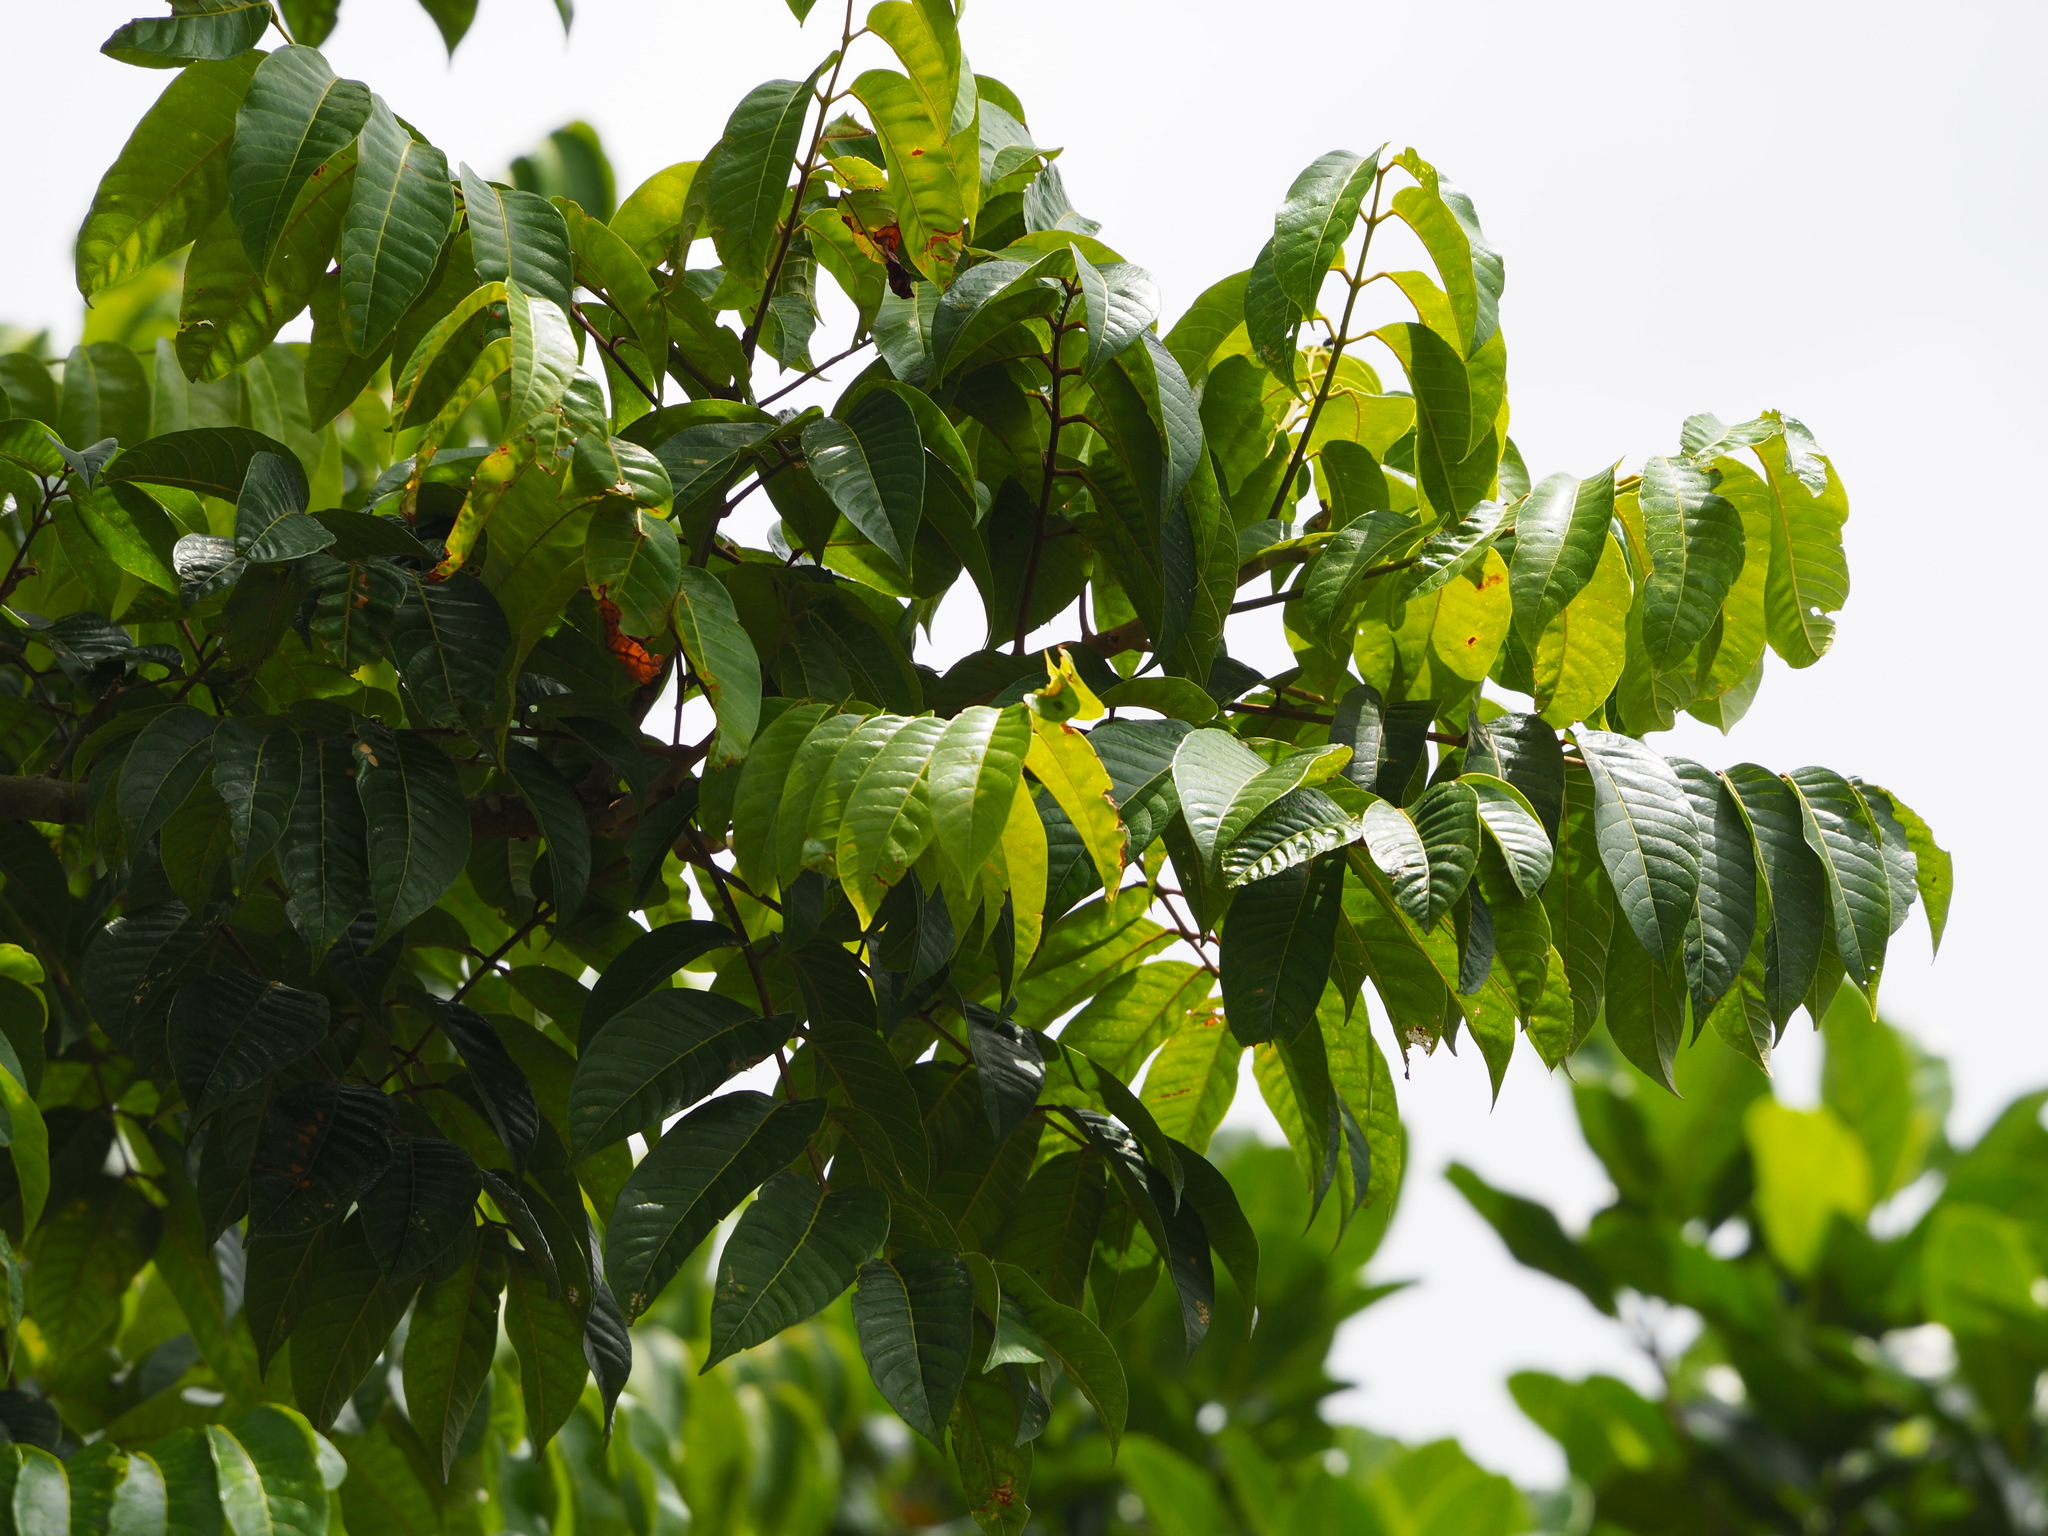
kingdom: Plantae
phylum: Tracheophyta
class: Magnoliopsida
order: Sapindales
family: Burseraceae
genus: Canarium
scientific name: Canarium subulatum
